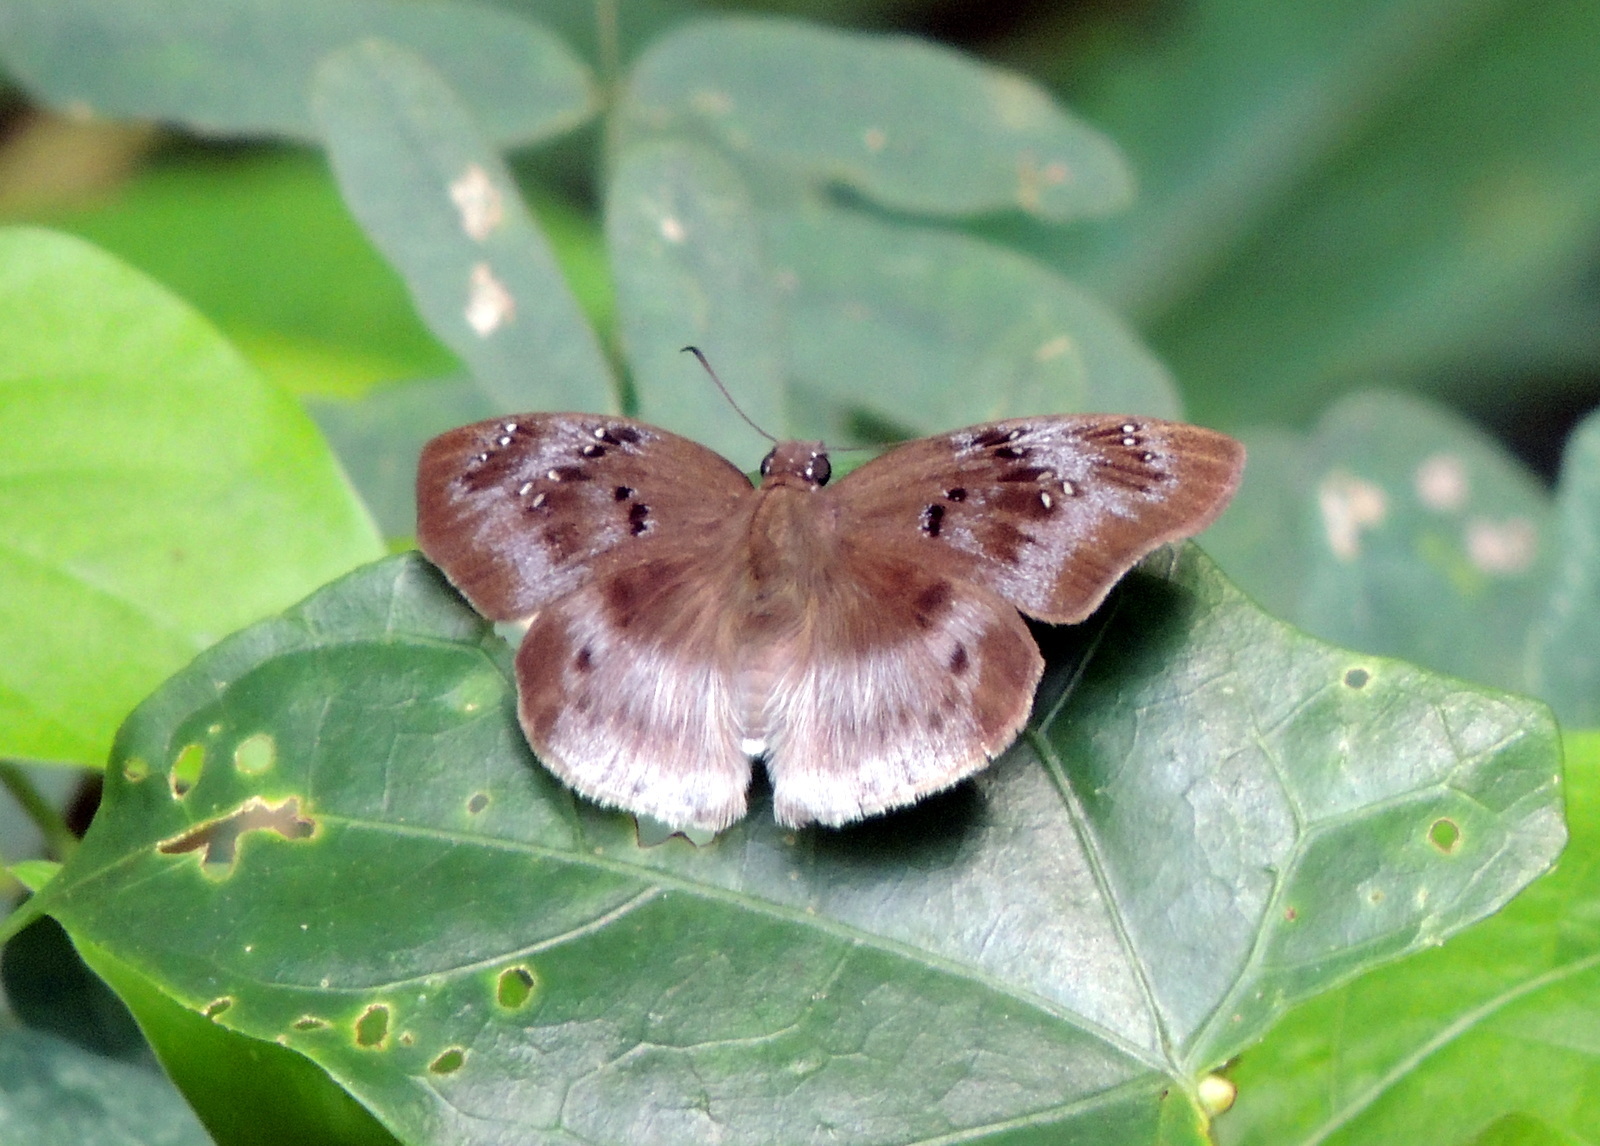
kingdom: Animalia
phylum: Arthropoda
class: Insecta
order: Lepidoptera
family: Hesperiidae
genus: Tagiades
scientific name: Tagiades flesus
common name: Clouded flat
